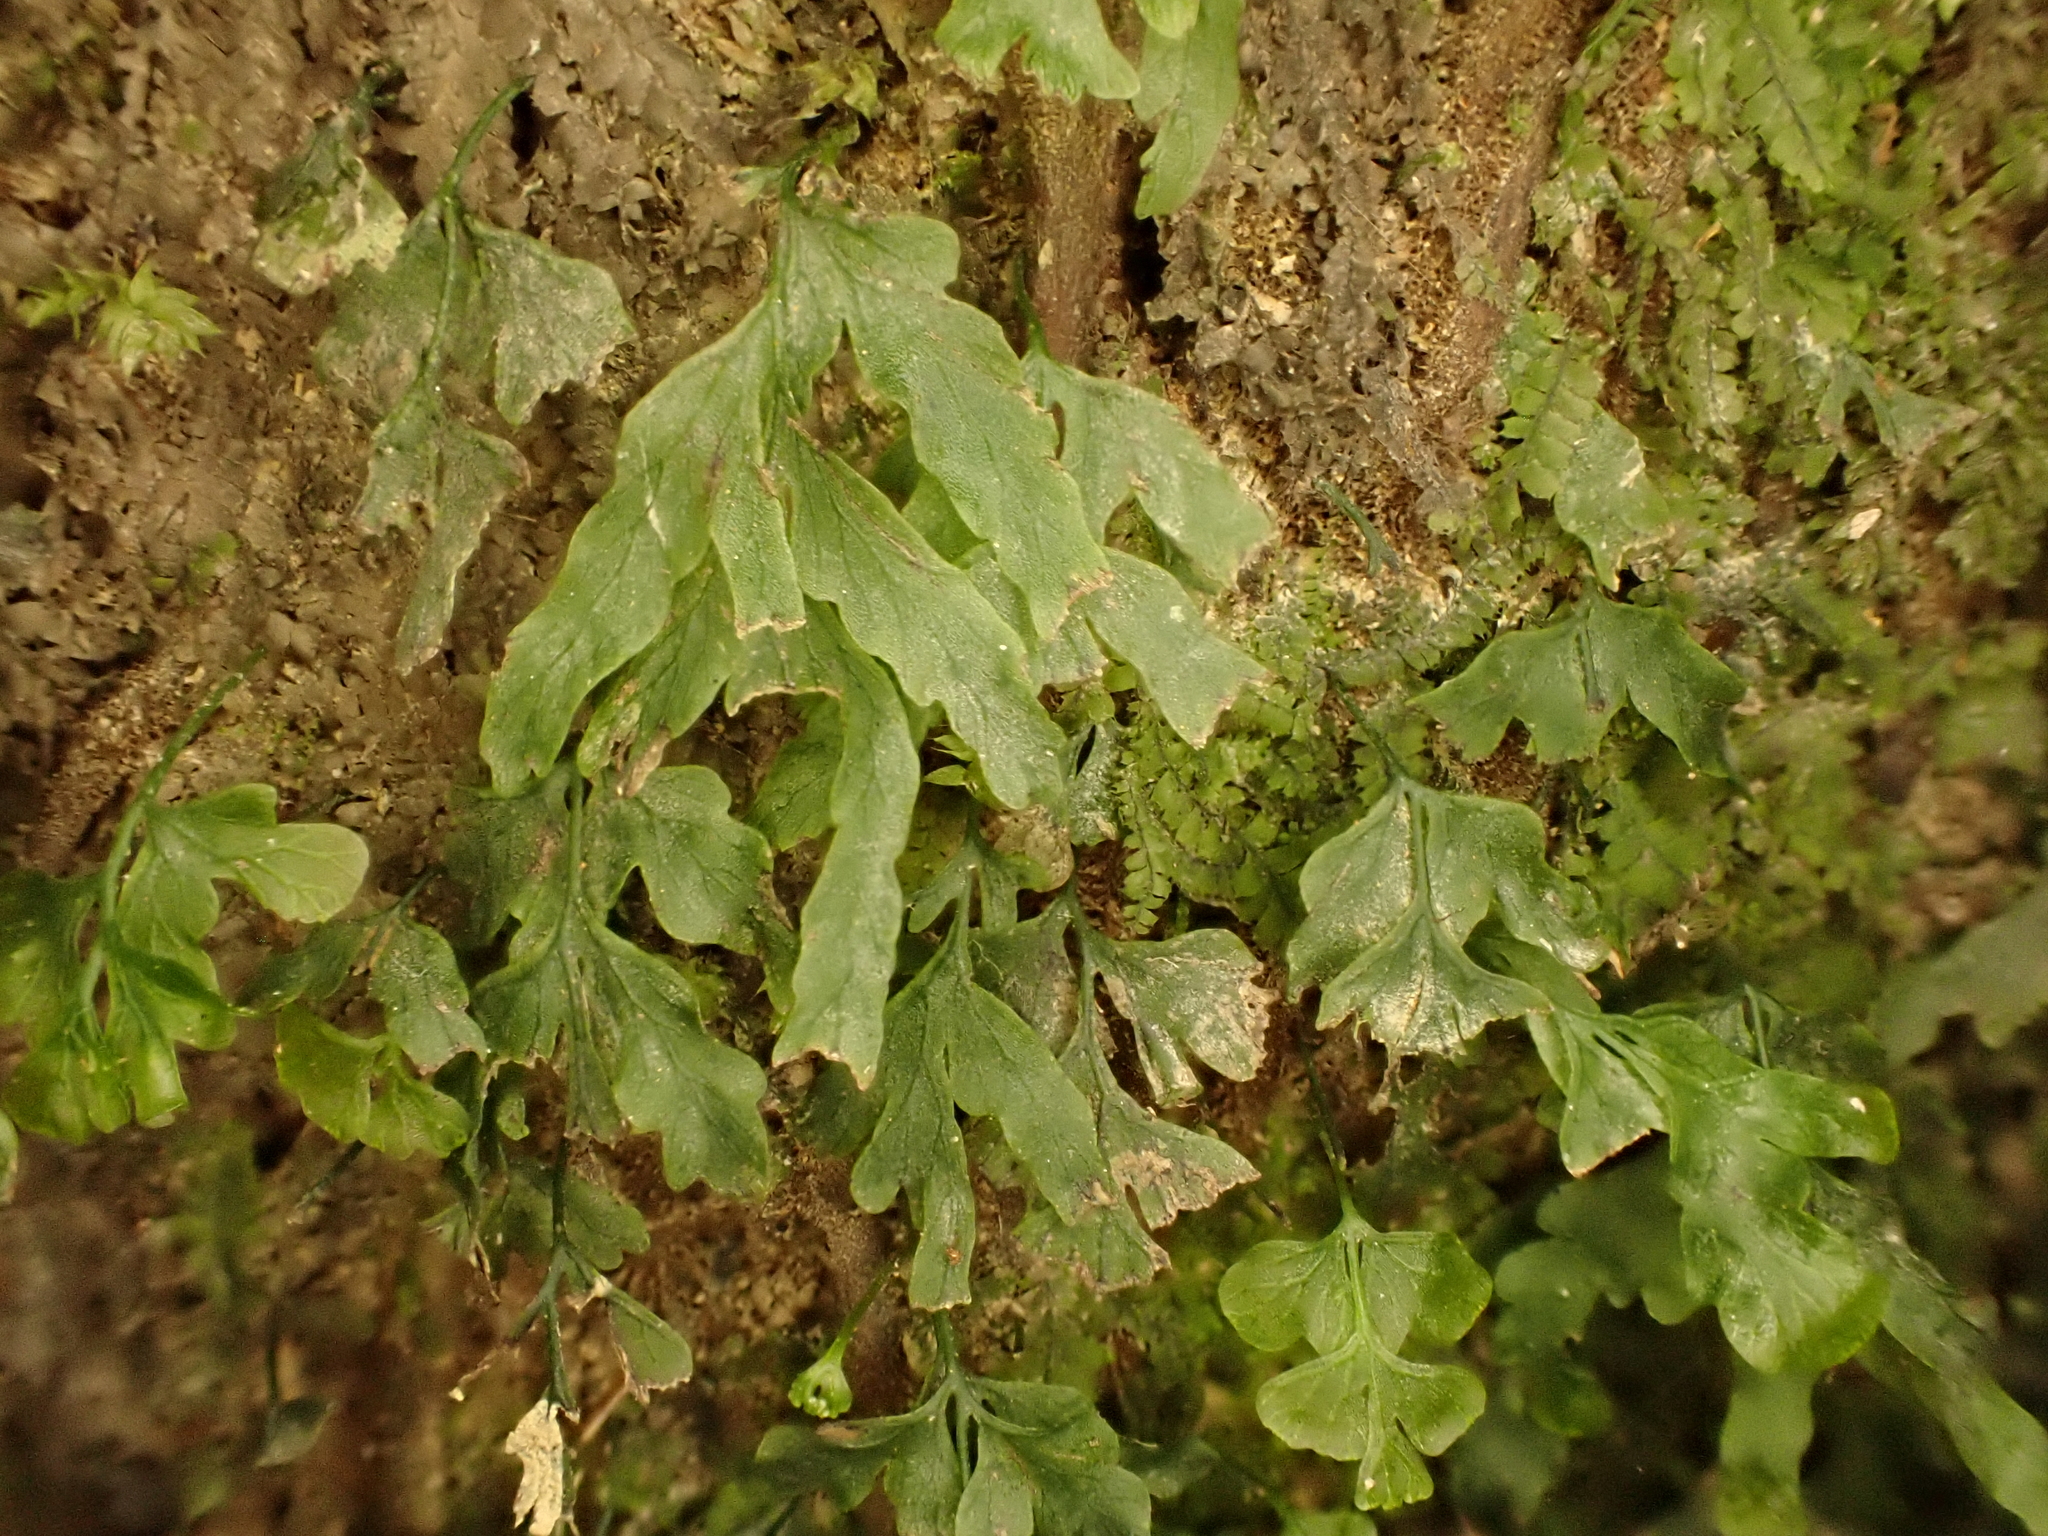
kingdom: Plantae
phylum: Tracheophyta
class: Polypodiopsida
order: Hymenophyllales
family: Hymenophyllaceae
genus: Polyphlebium
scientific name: Polyphlebium venosum
